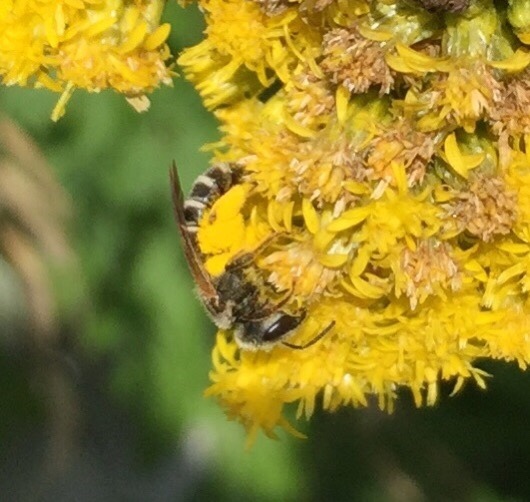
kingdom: Animalia
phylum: Arthropoda
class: Insecta
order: Hymenoptera
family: Halictidae
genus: Halictus
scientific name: Halictus ligatus
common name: Ligated furrow bee
